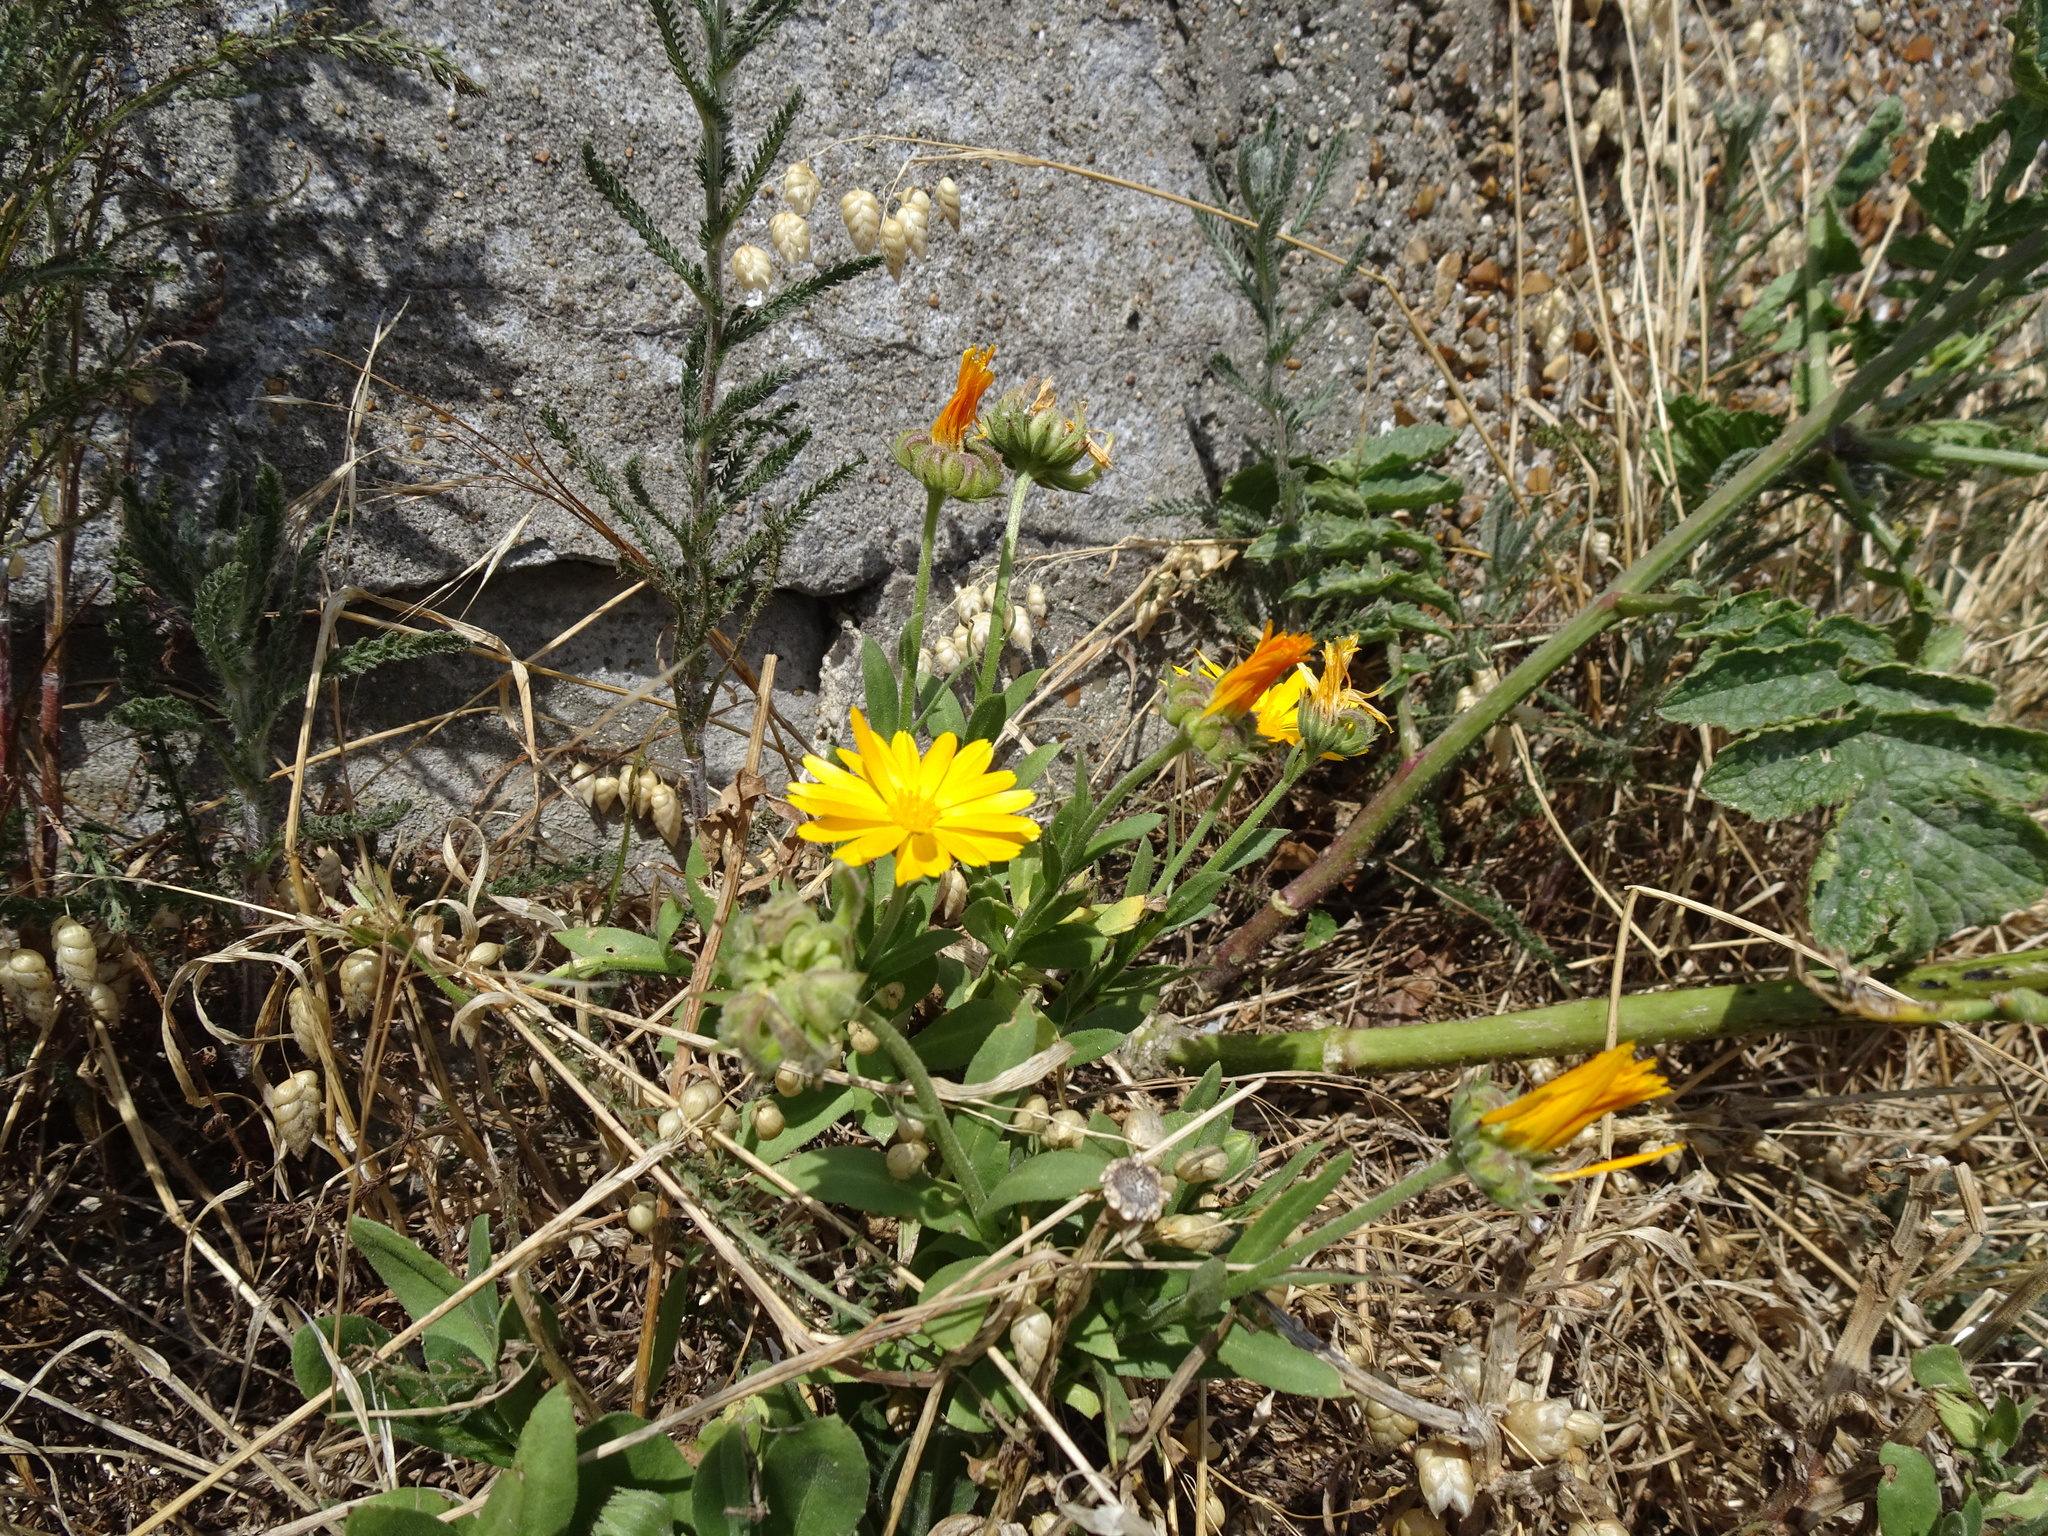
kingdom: Plantae
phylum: Tracheophyta
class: Magnoliopsida
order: Asterales
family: Asteraceae
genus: Calendula
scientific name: Calendula officinalis
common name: Pot marigold
